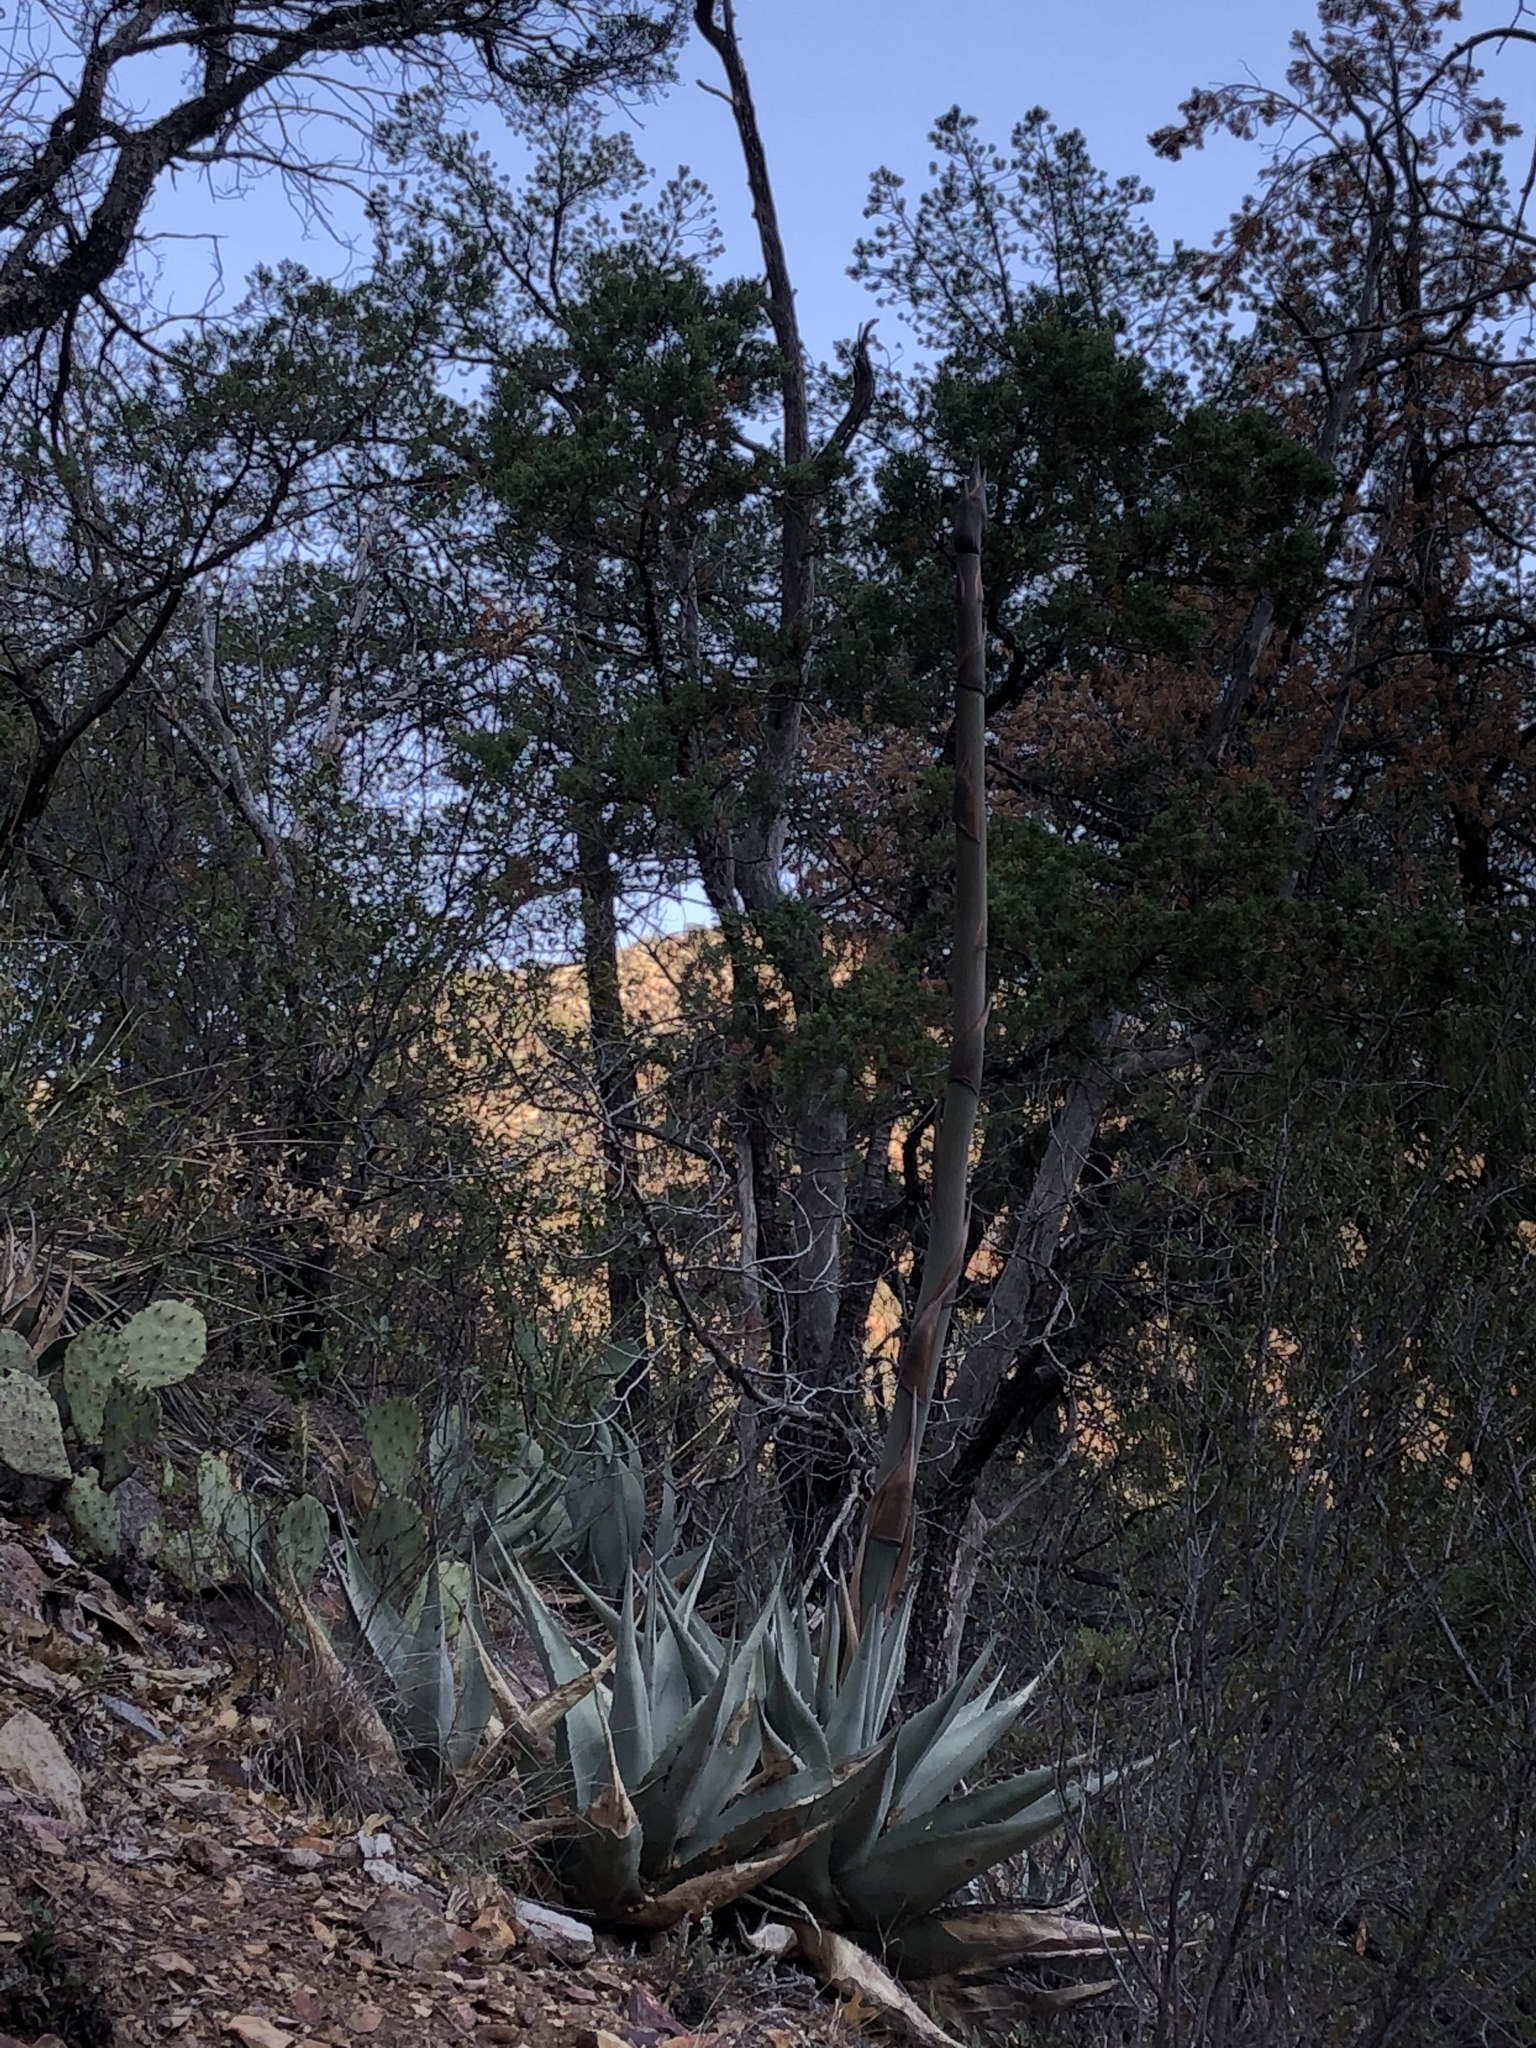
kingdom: Plantae
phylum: Tracheophyta
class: Liliopsida
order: Asparagales
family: Asparagaceae
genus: Agave
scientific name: Agave havardiana
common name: Havard agave
